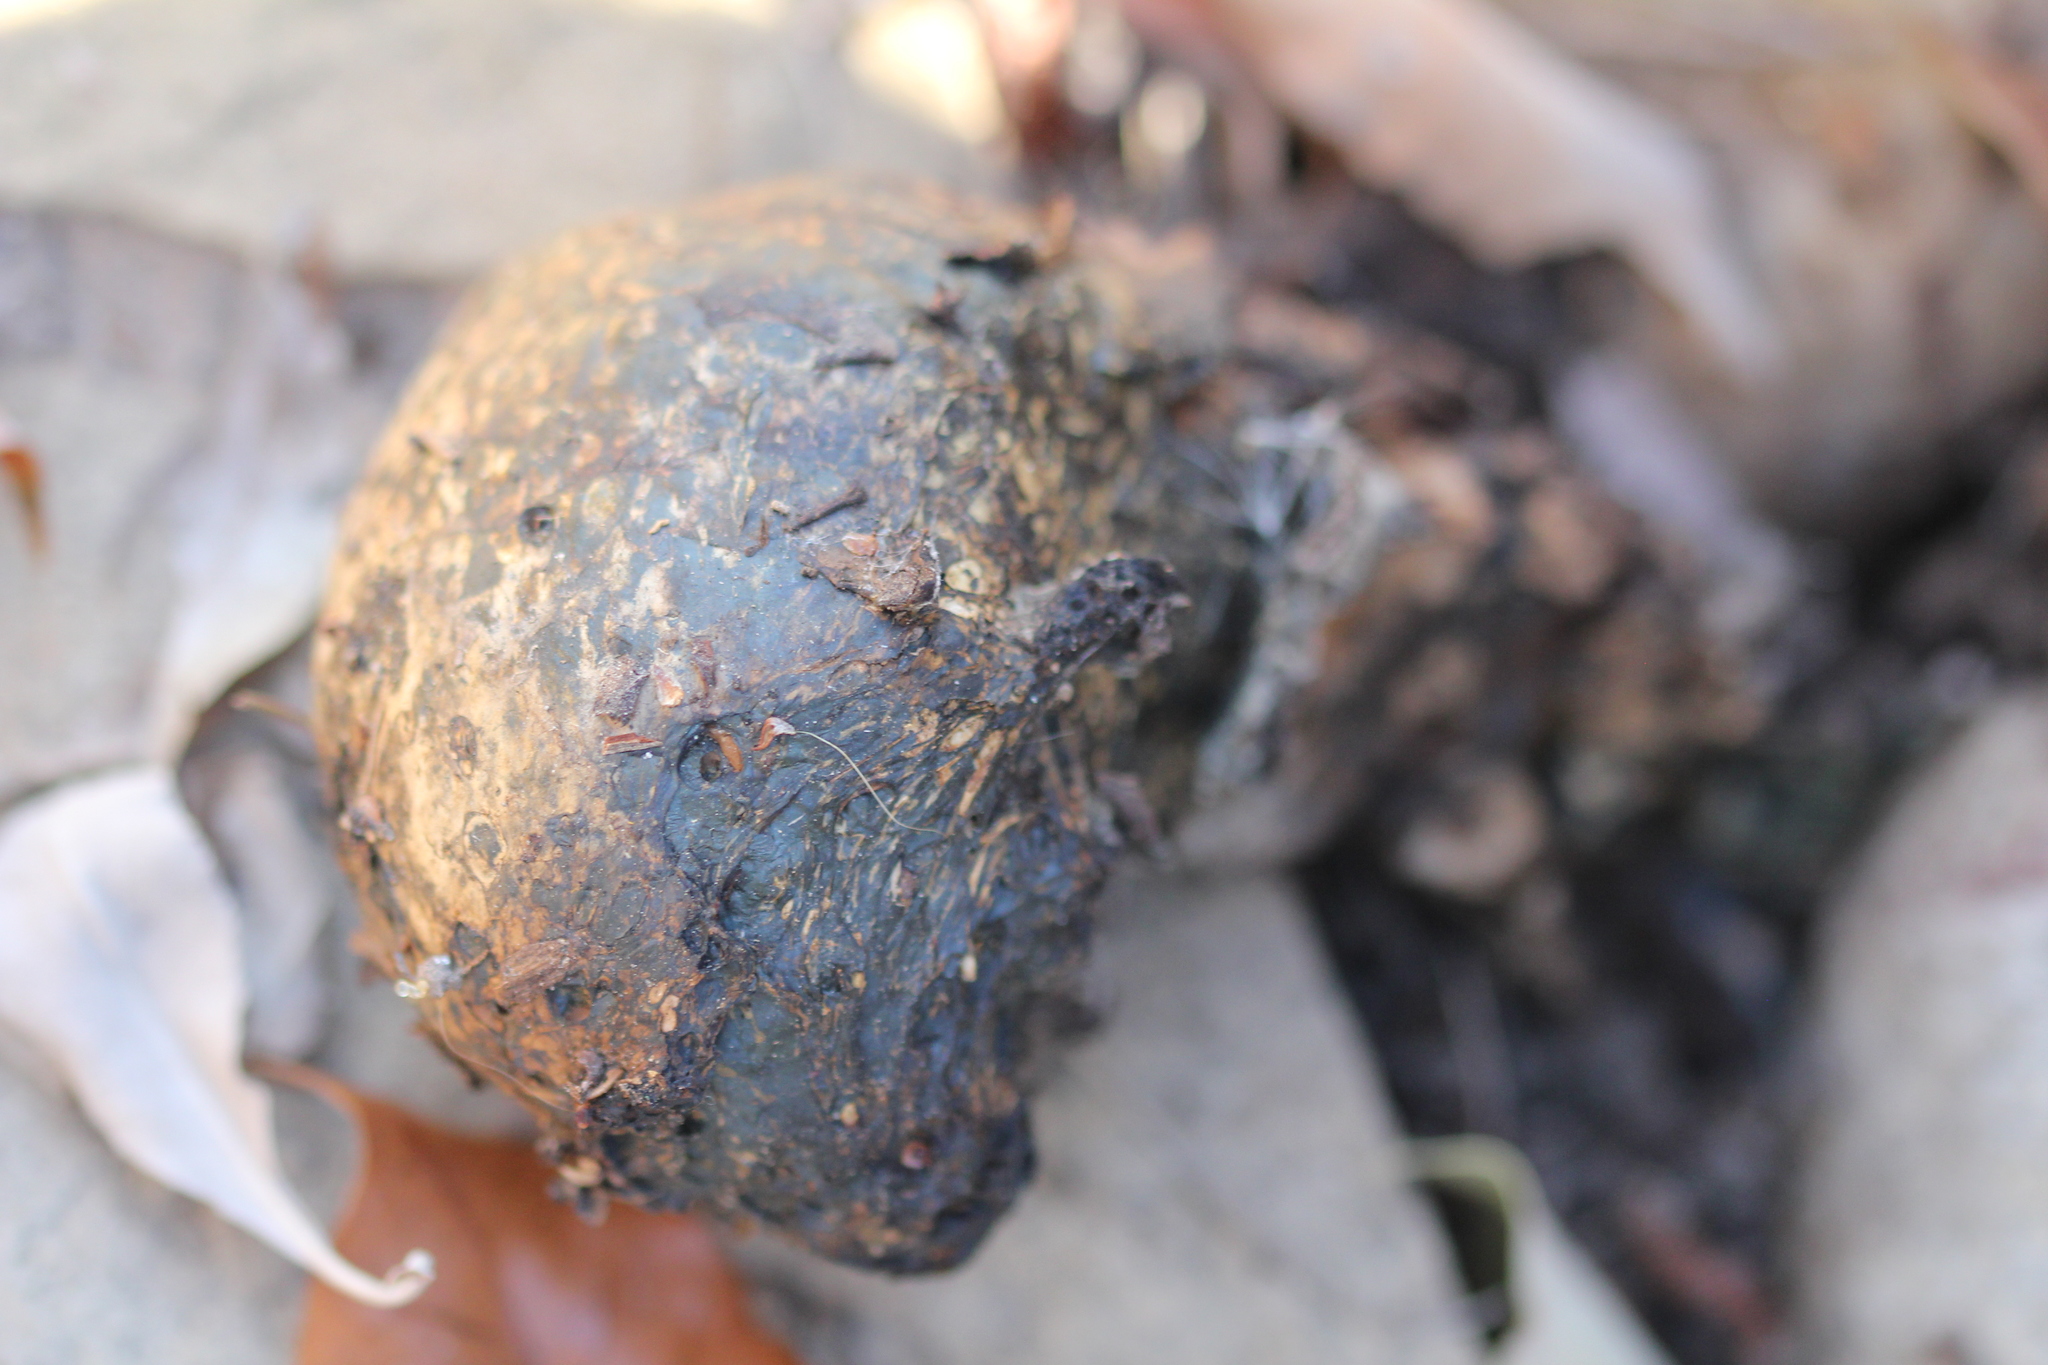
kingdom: Fungi
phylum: Basidiomycota
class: Agaricomycetes
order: Boletales
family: Sclerodermataceae
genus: Pisolithus
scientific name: Pisolithus arhizus
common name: Dyeball
